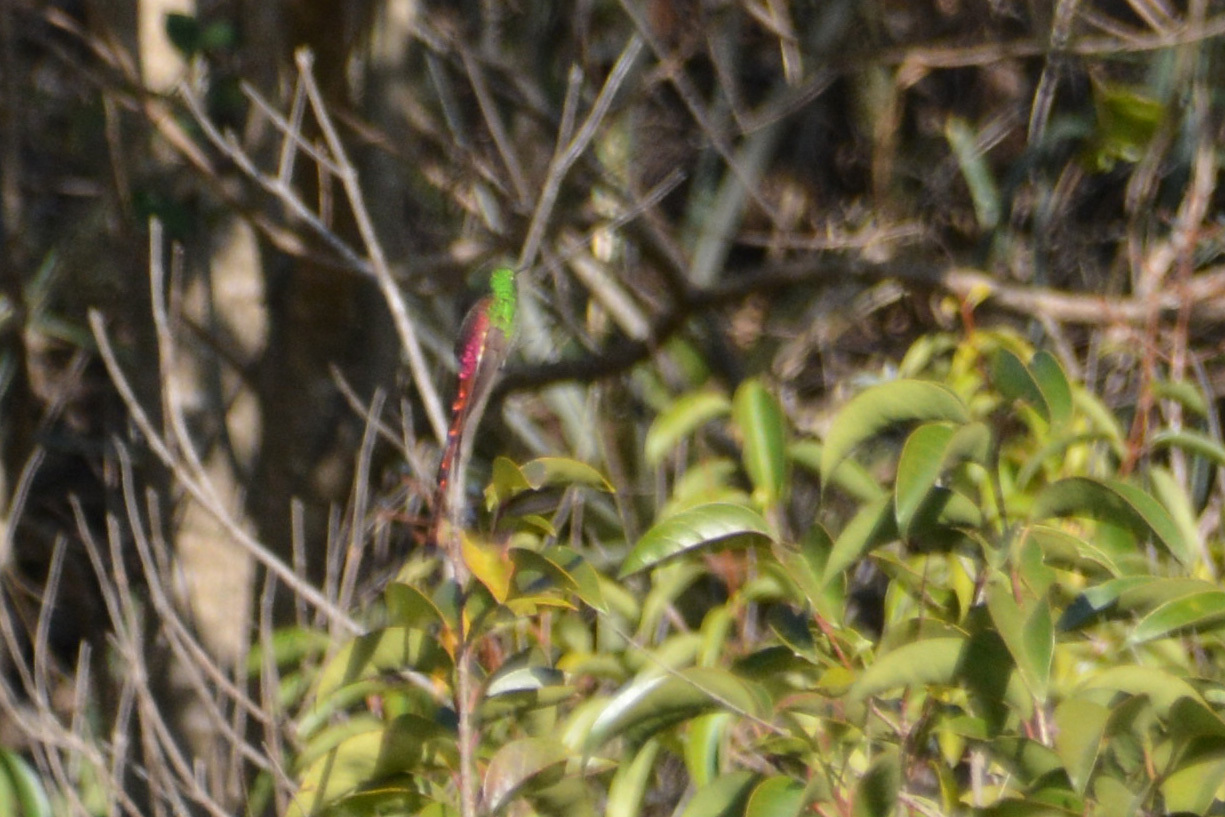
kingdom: Animalia
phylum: Chordata
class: Aves
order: Apodiformes
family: Trochilidae
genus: Sappho
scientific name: Sappho sparganurus
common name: Red-tailed comet
